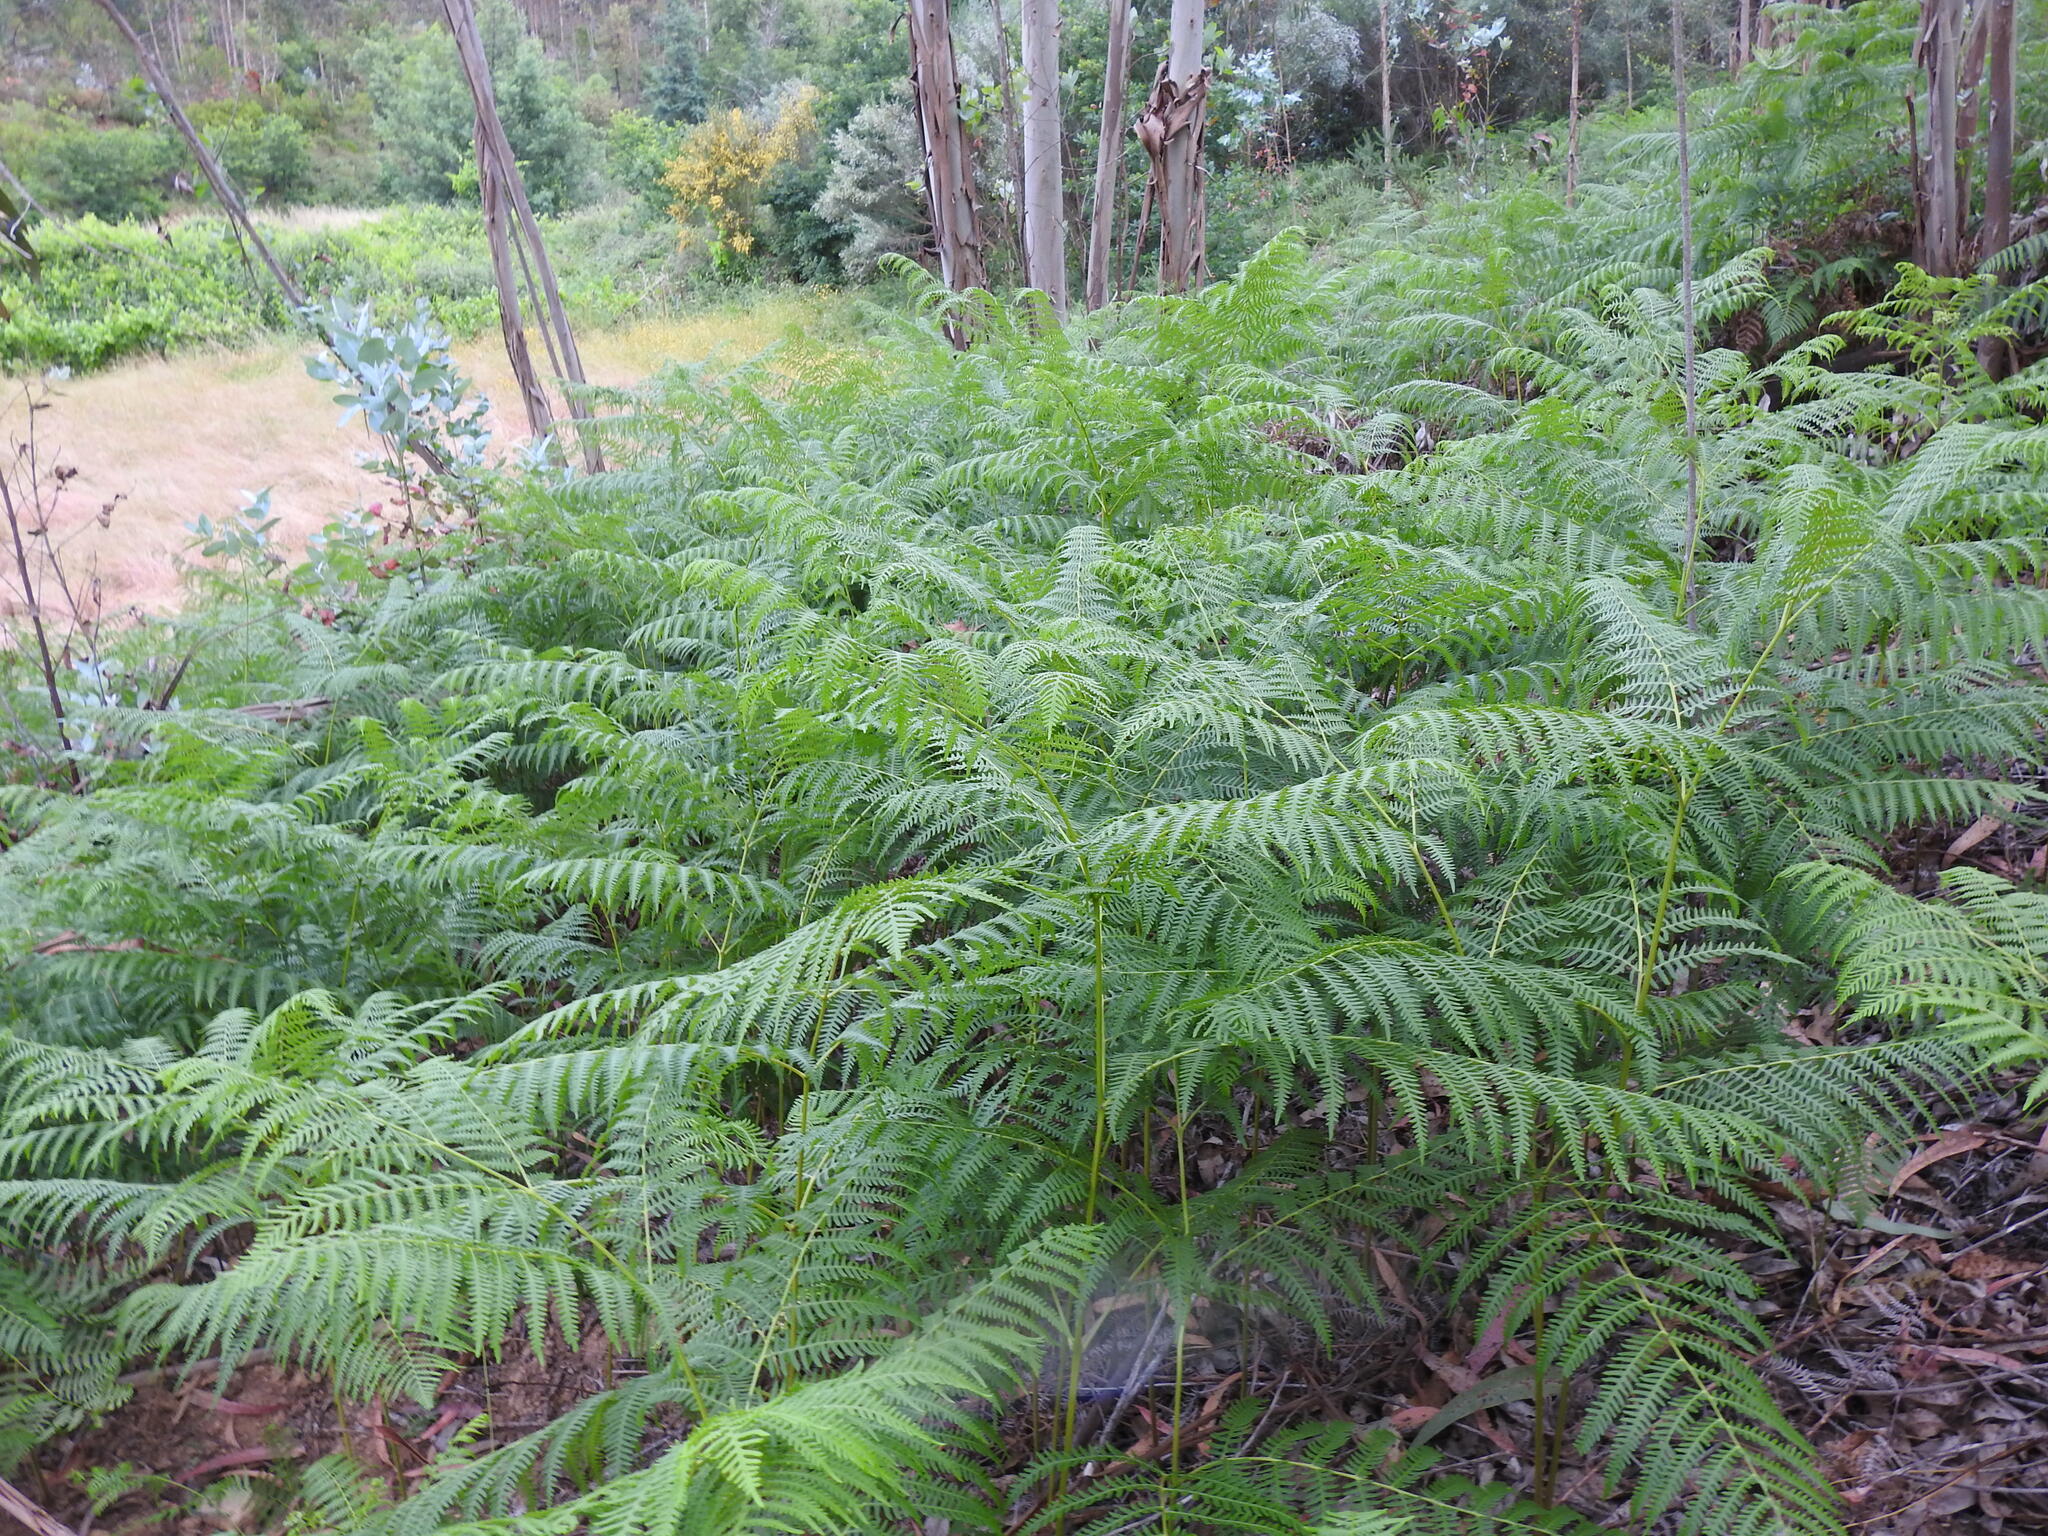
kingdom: Plantae
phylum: Tracheophyta
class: Polypodiopsida
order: Polypodiales
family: Dennstaedtiaceae
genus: Pteridium
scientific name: Pteridium aquilinum
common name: Bracken
